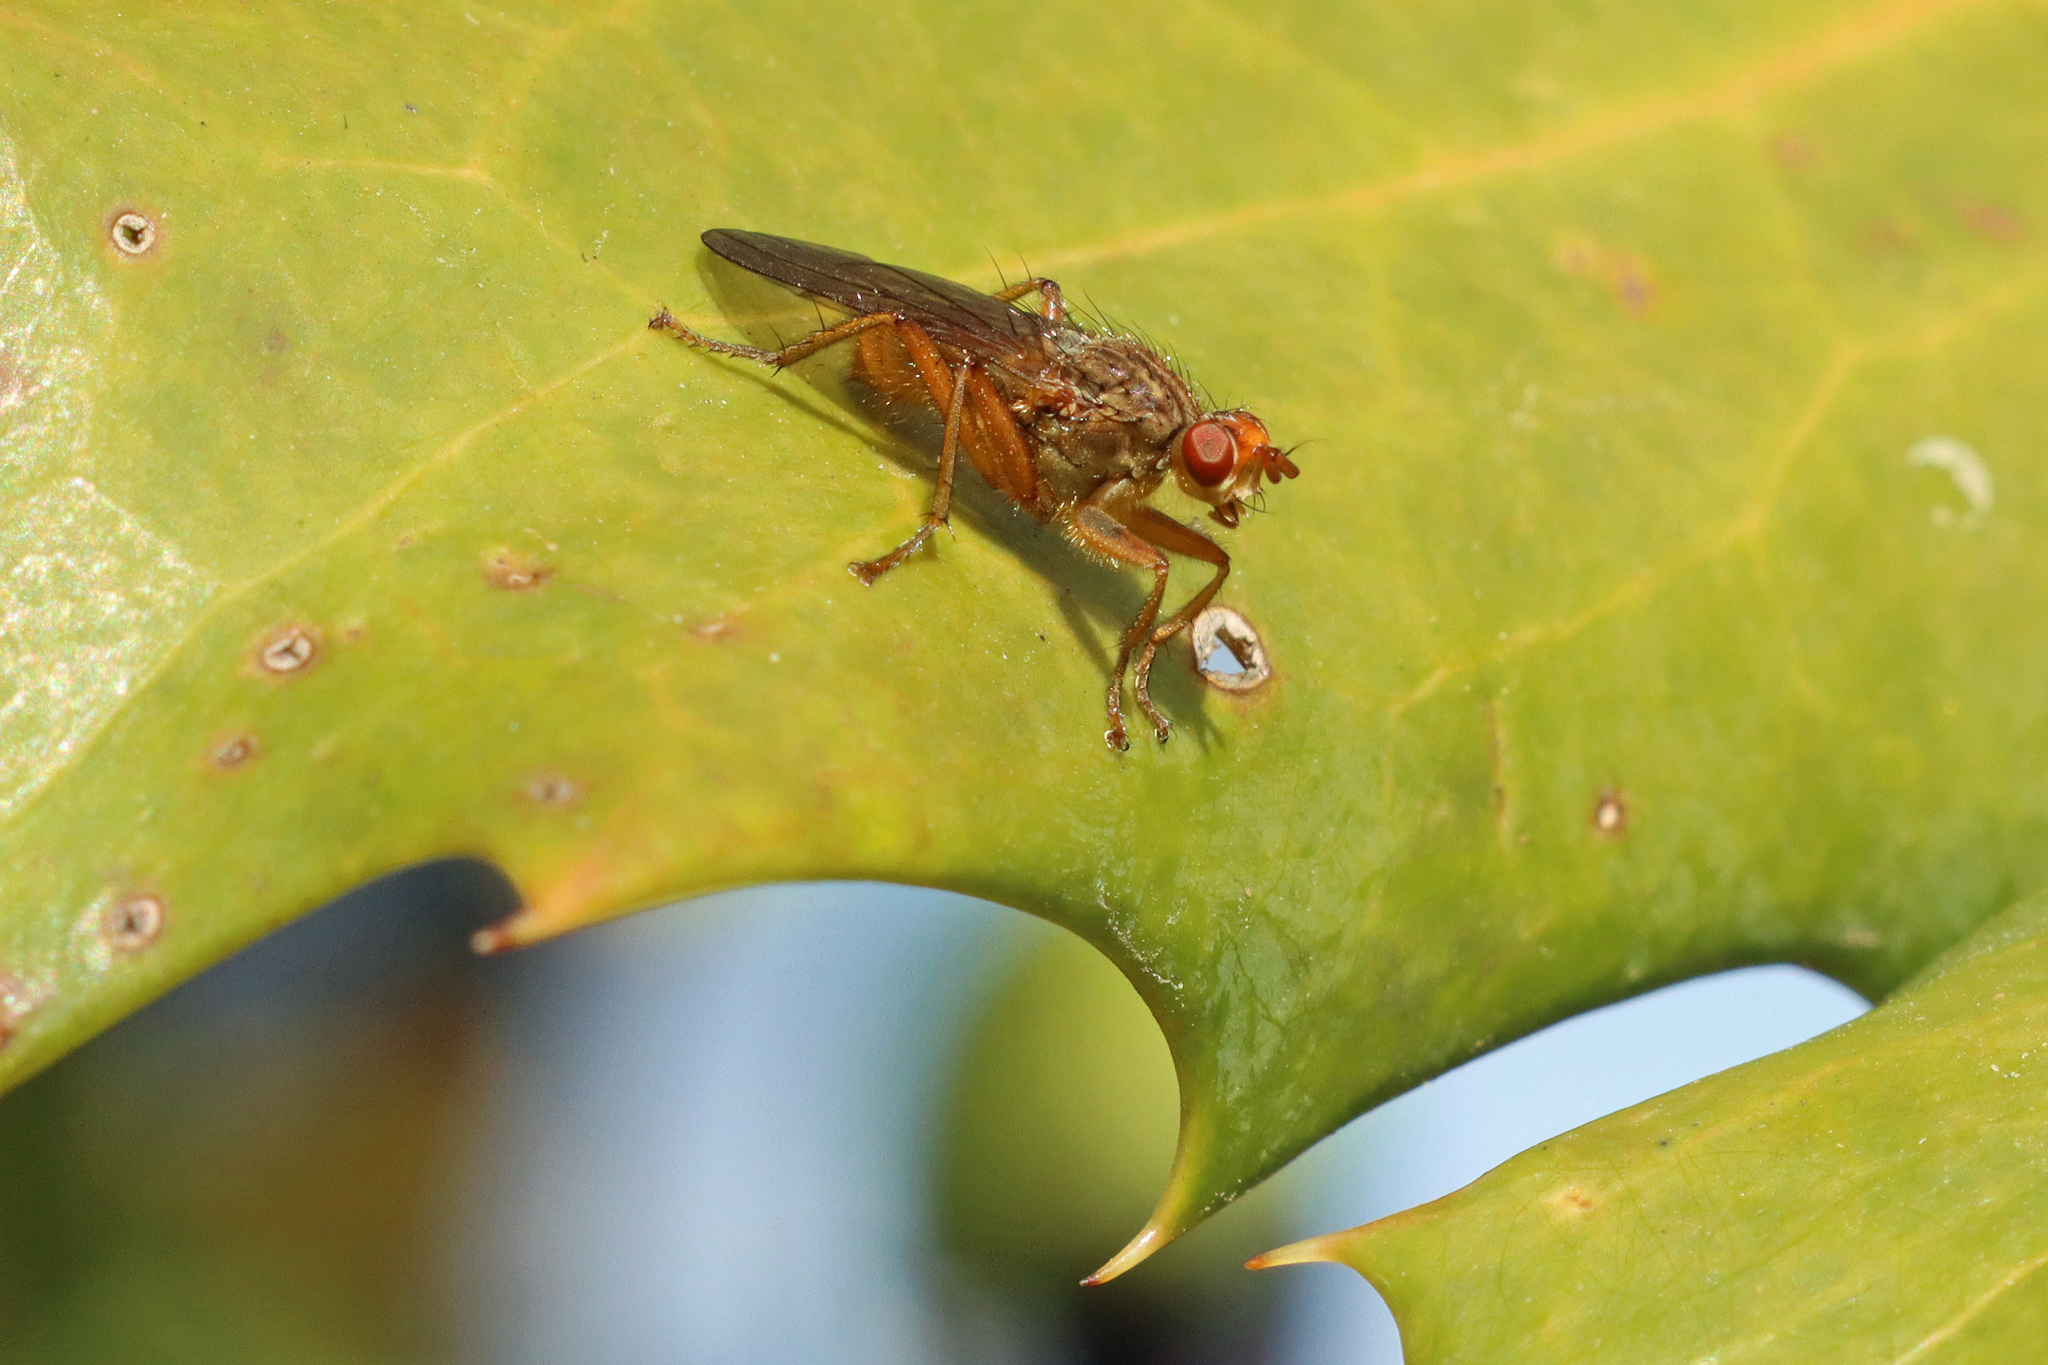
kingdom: Animalia
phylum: Arthropoda
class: Insecta
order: Diptera
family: Scathophagidae
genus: Scathophaga
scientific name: Scathophaga
